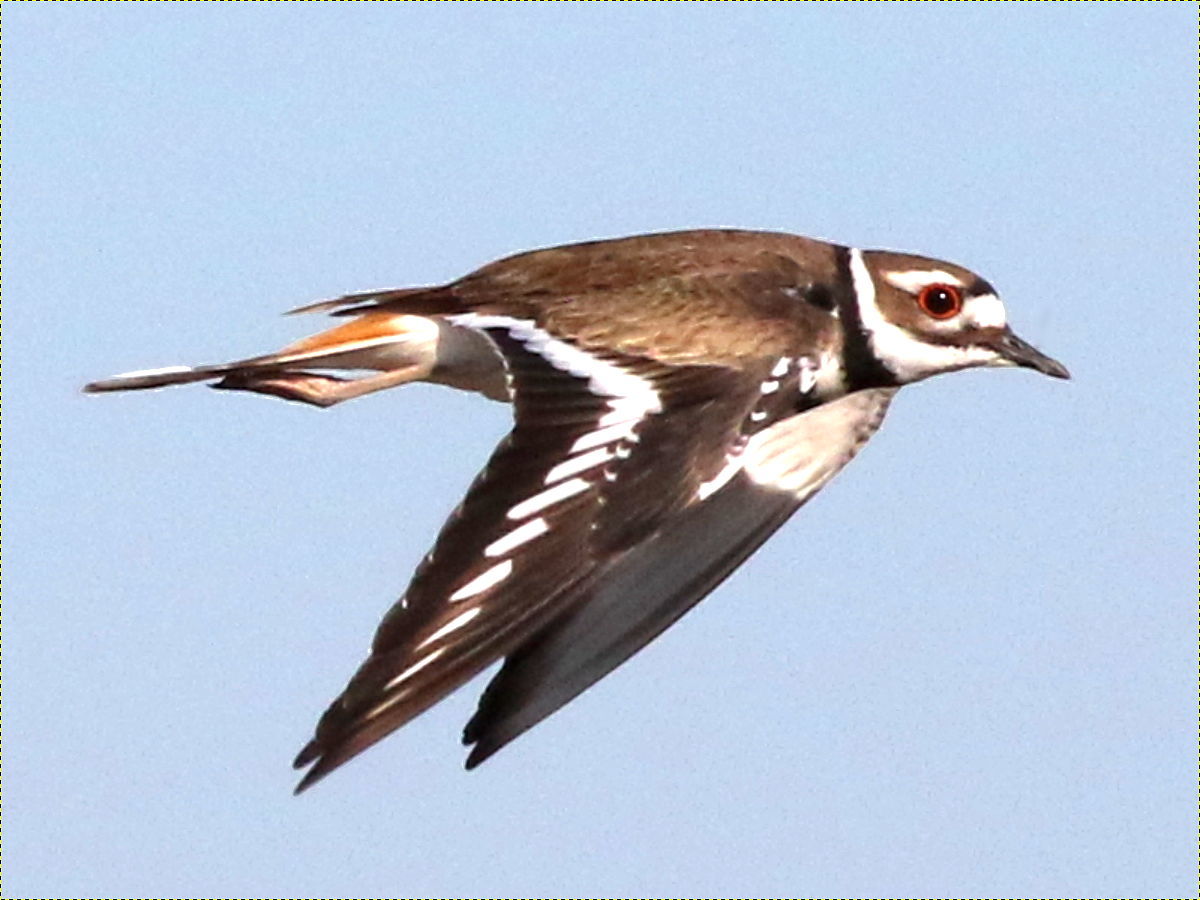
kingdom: Animalia
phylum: Chordata
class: Aves
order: Charadriiformes
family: Charadriidae
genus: Charadrius
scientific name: Charadrius vociferus
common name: Killdeer
